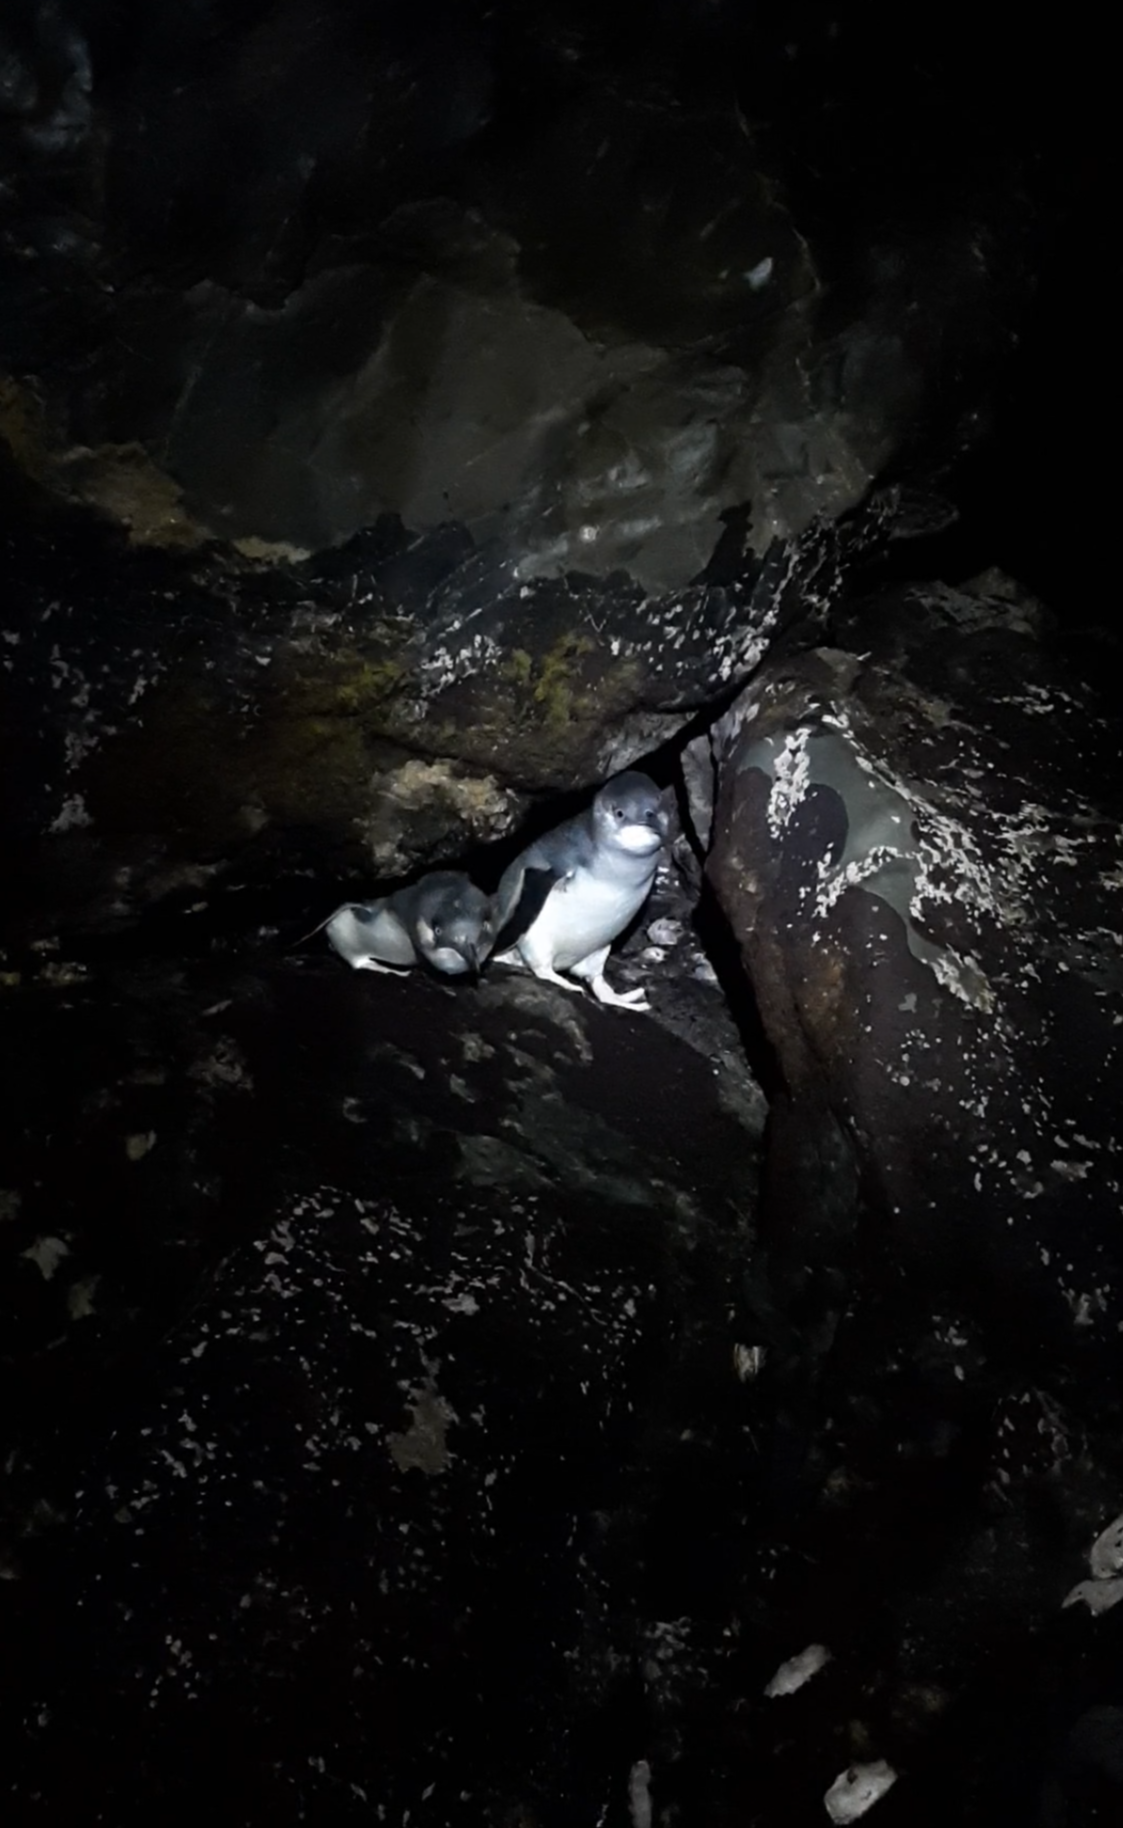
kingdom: Animalia
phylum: Chordata
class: Aves
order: Sphenisciformes
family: Spheniscidae
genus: Eudyptula
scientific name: Eudyptula minor
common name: Little penguin
